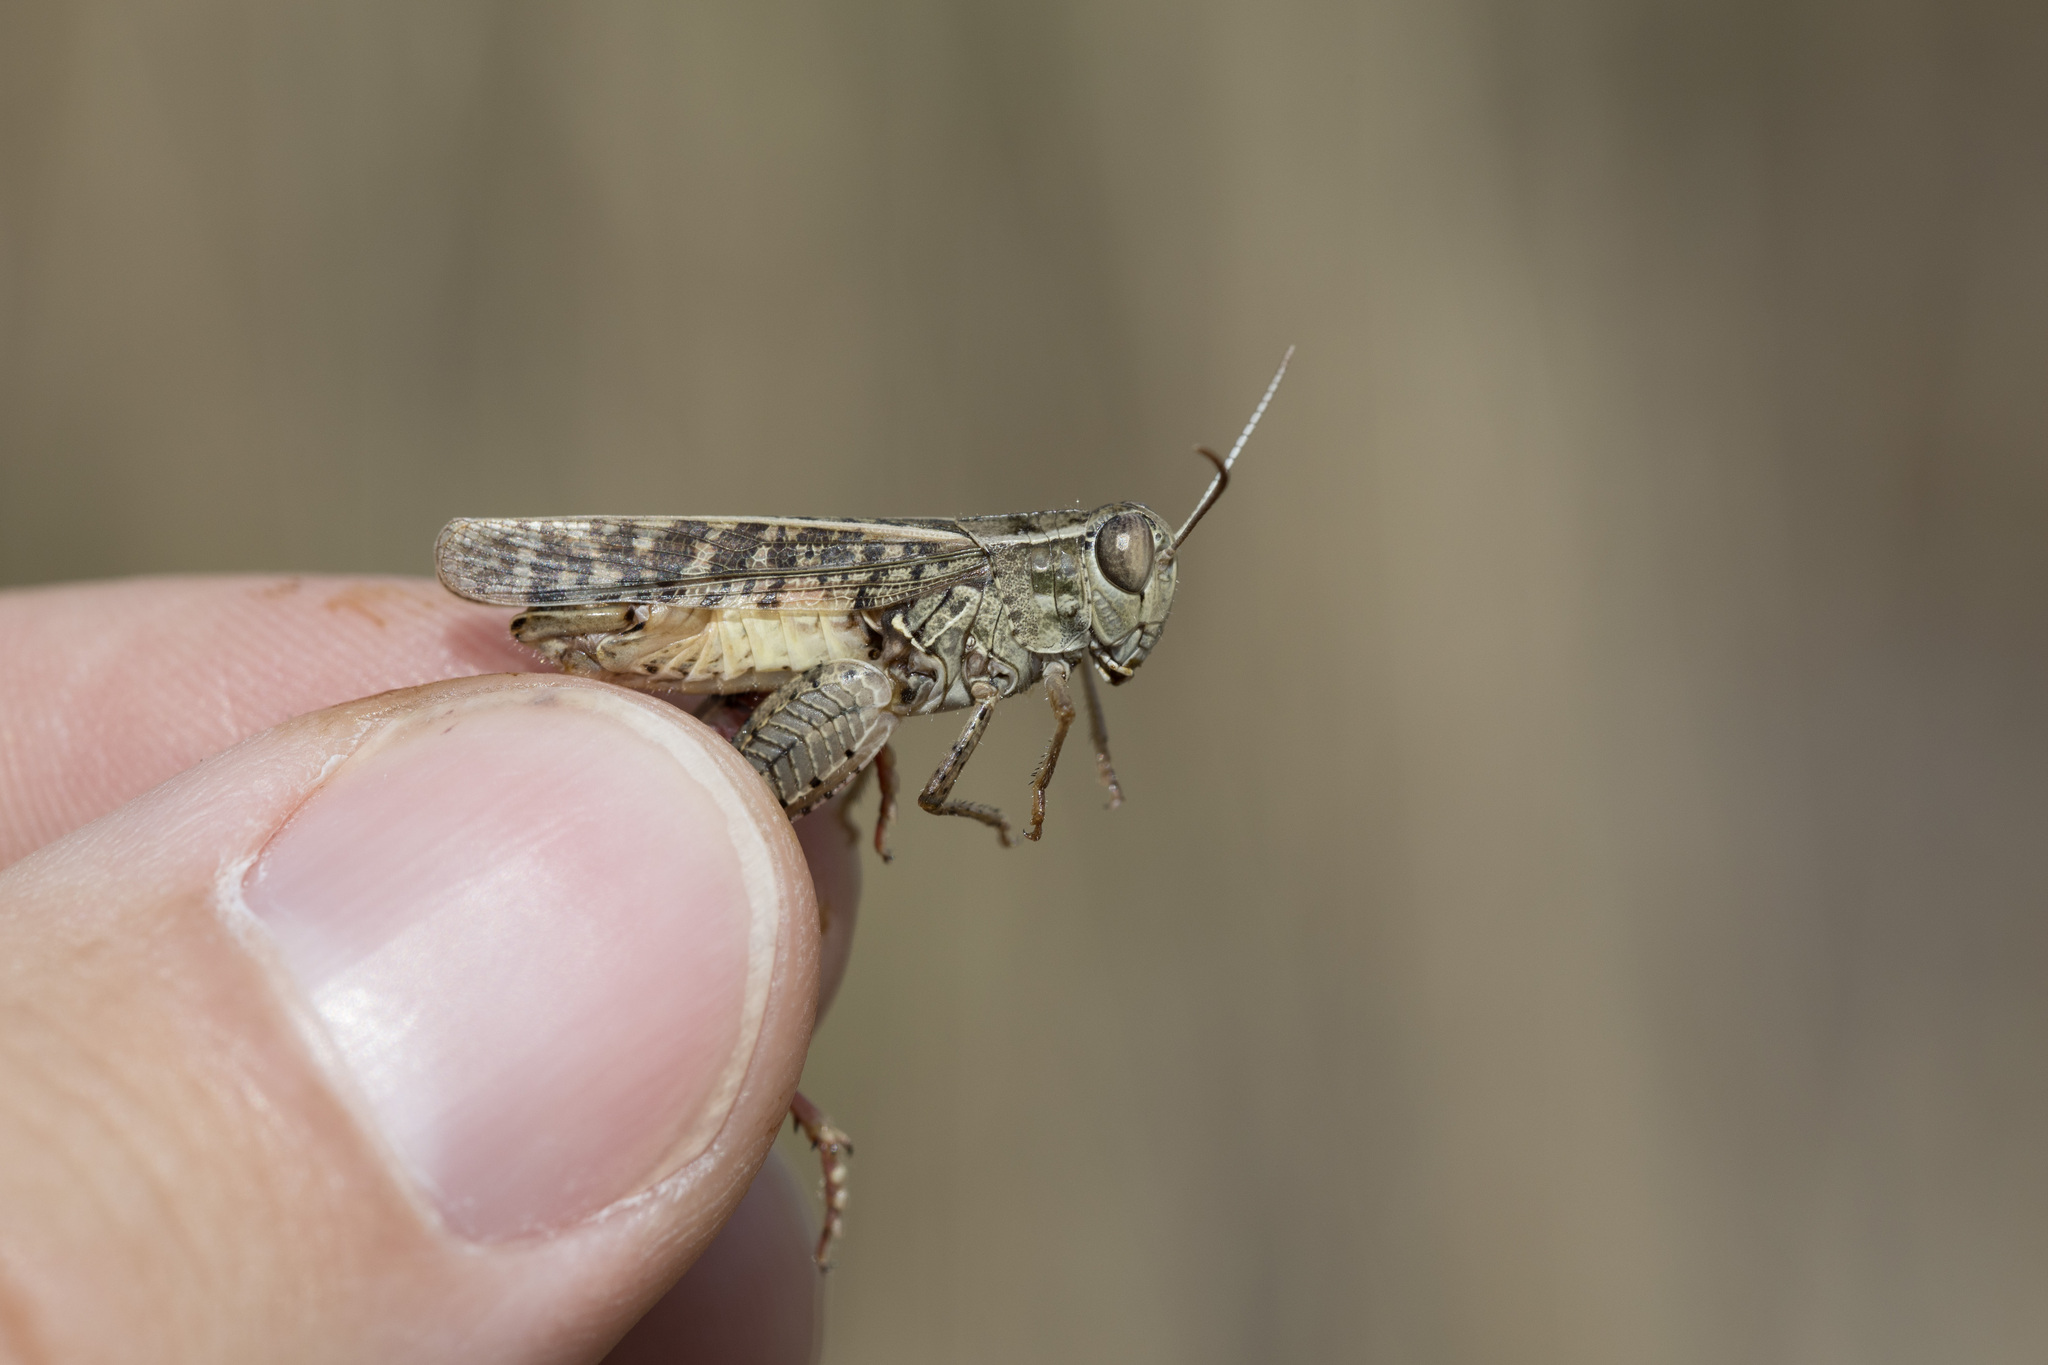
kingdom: Animalia
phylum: Arthropoda
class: Insecta
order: Orthoptera
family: Acrididae
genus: Calliptamus
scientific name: Calliptamus italicus
